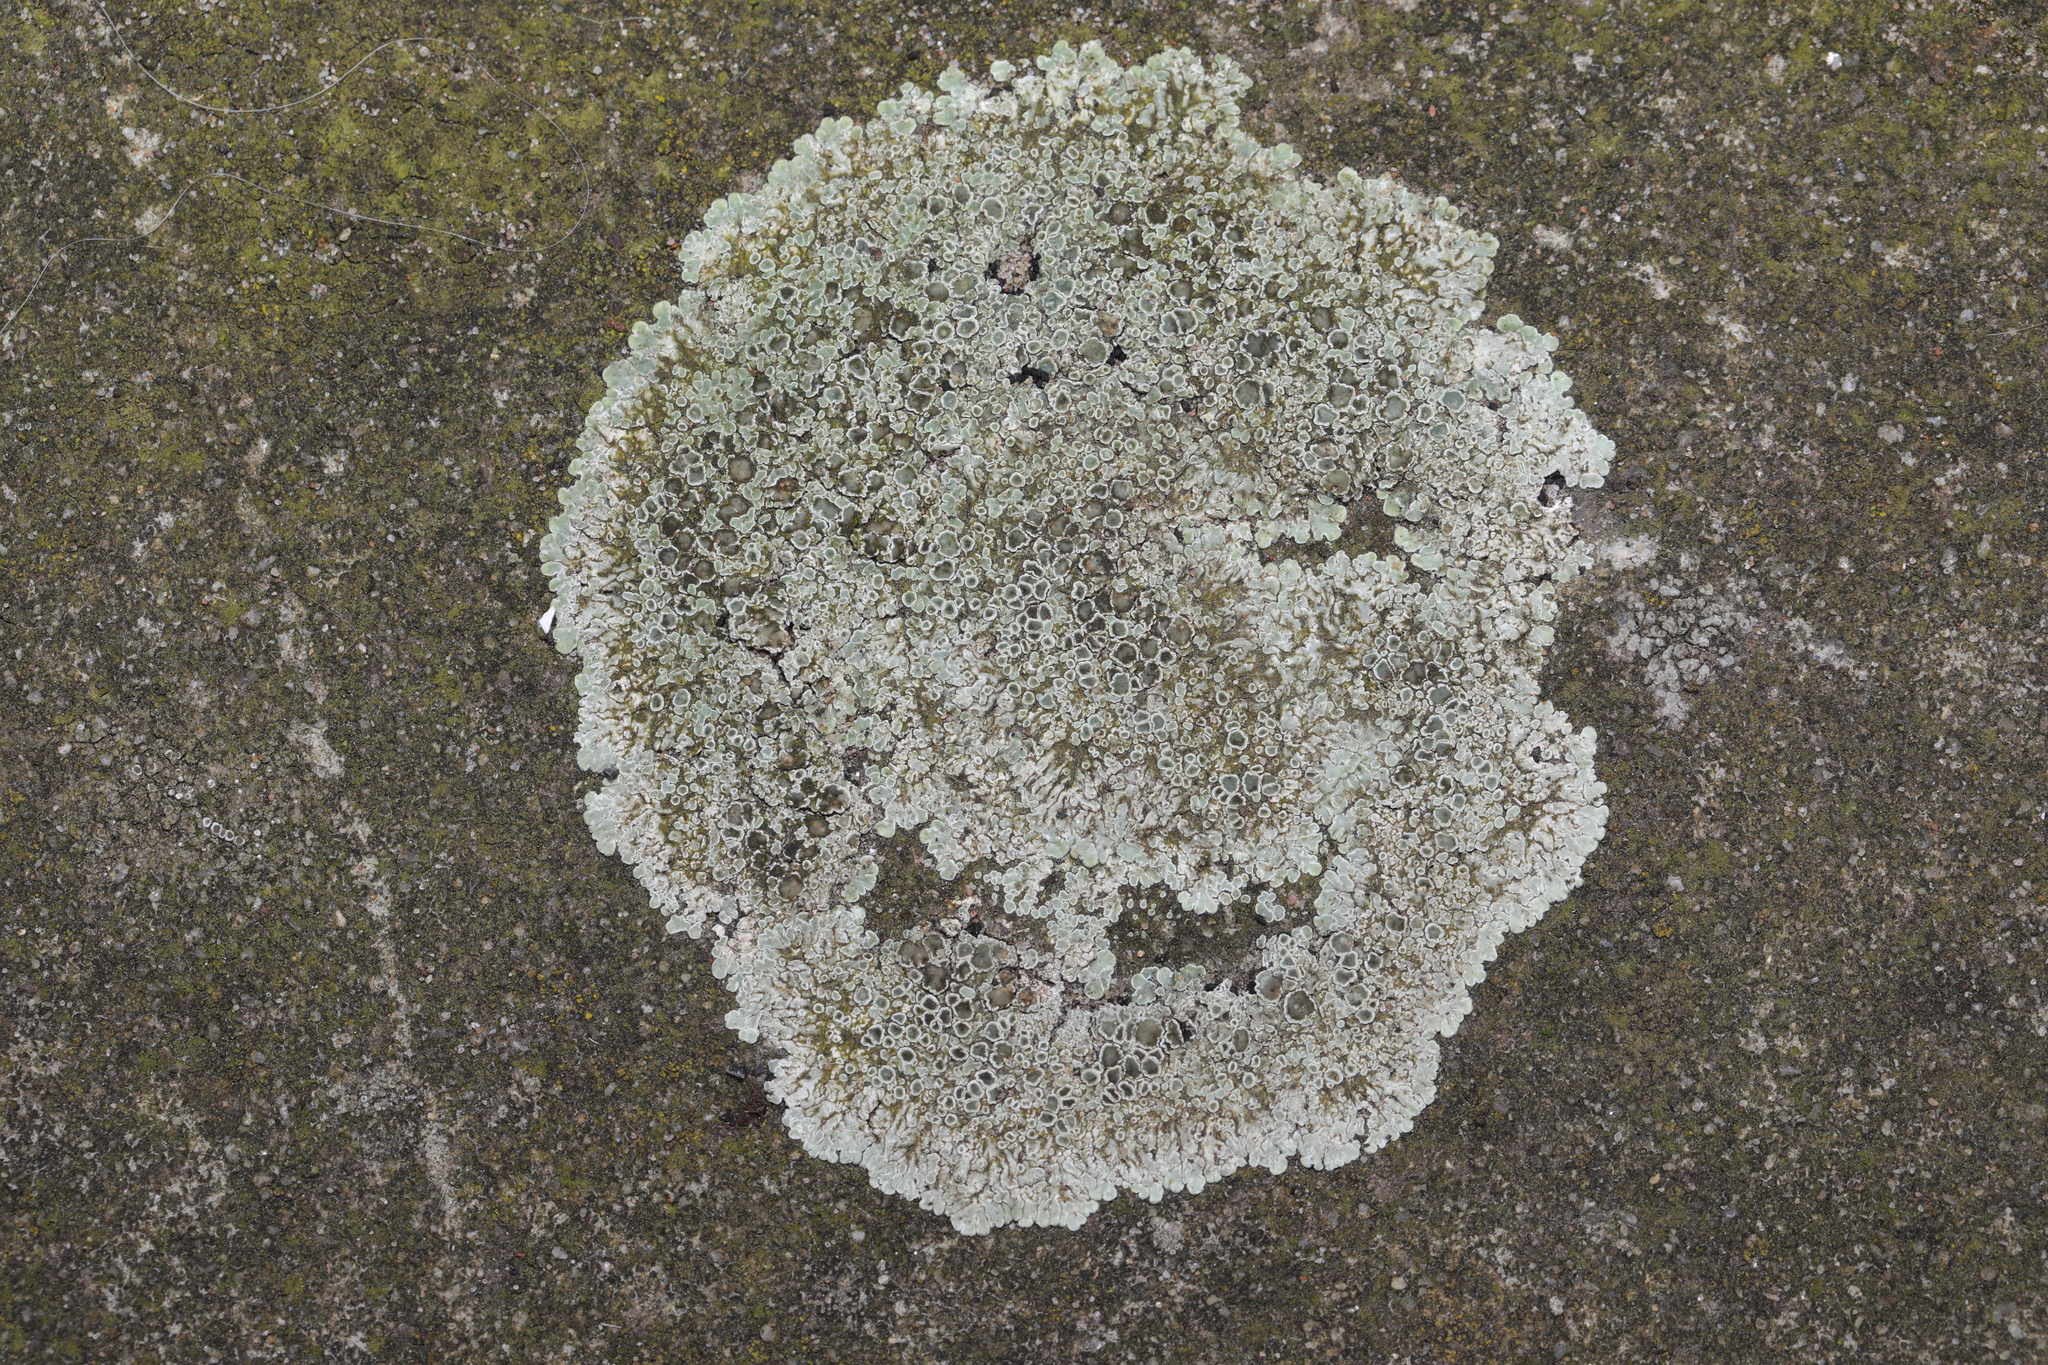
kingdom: Fungi
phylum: Ascomycota
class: Lecanoromycetes
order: Lecanorales
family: Lecanoraceae
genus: Protoparmeliopsis
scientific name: Protoparmeliopsis muralis
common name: Stonewall rim lichen
